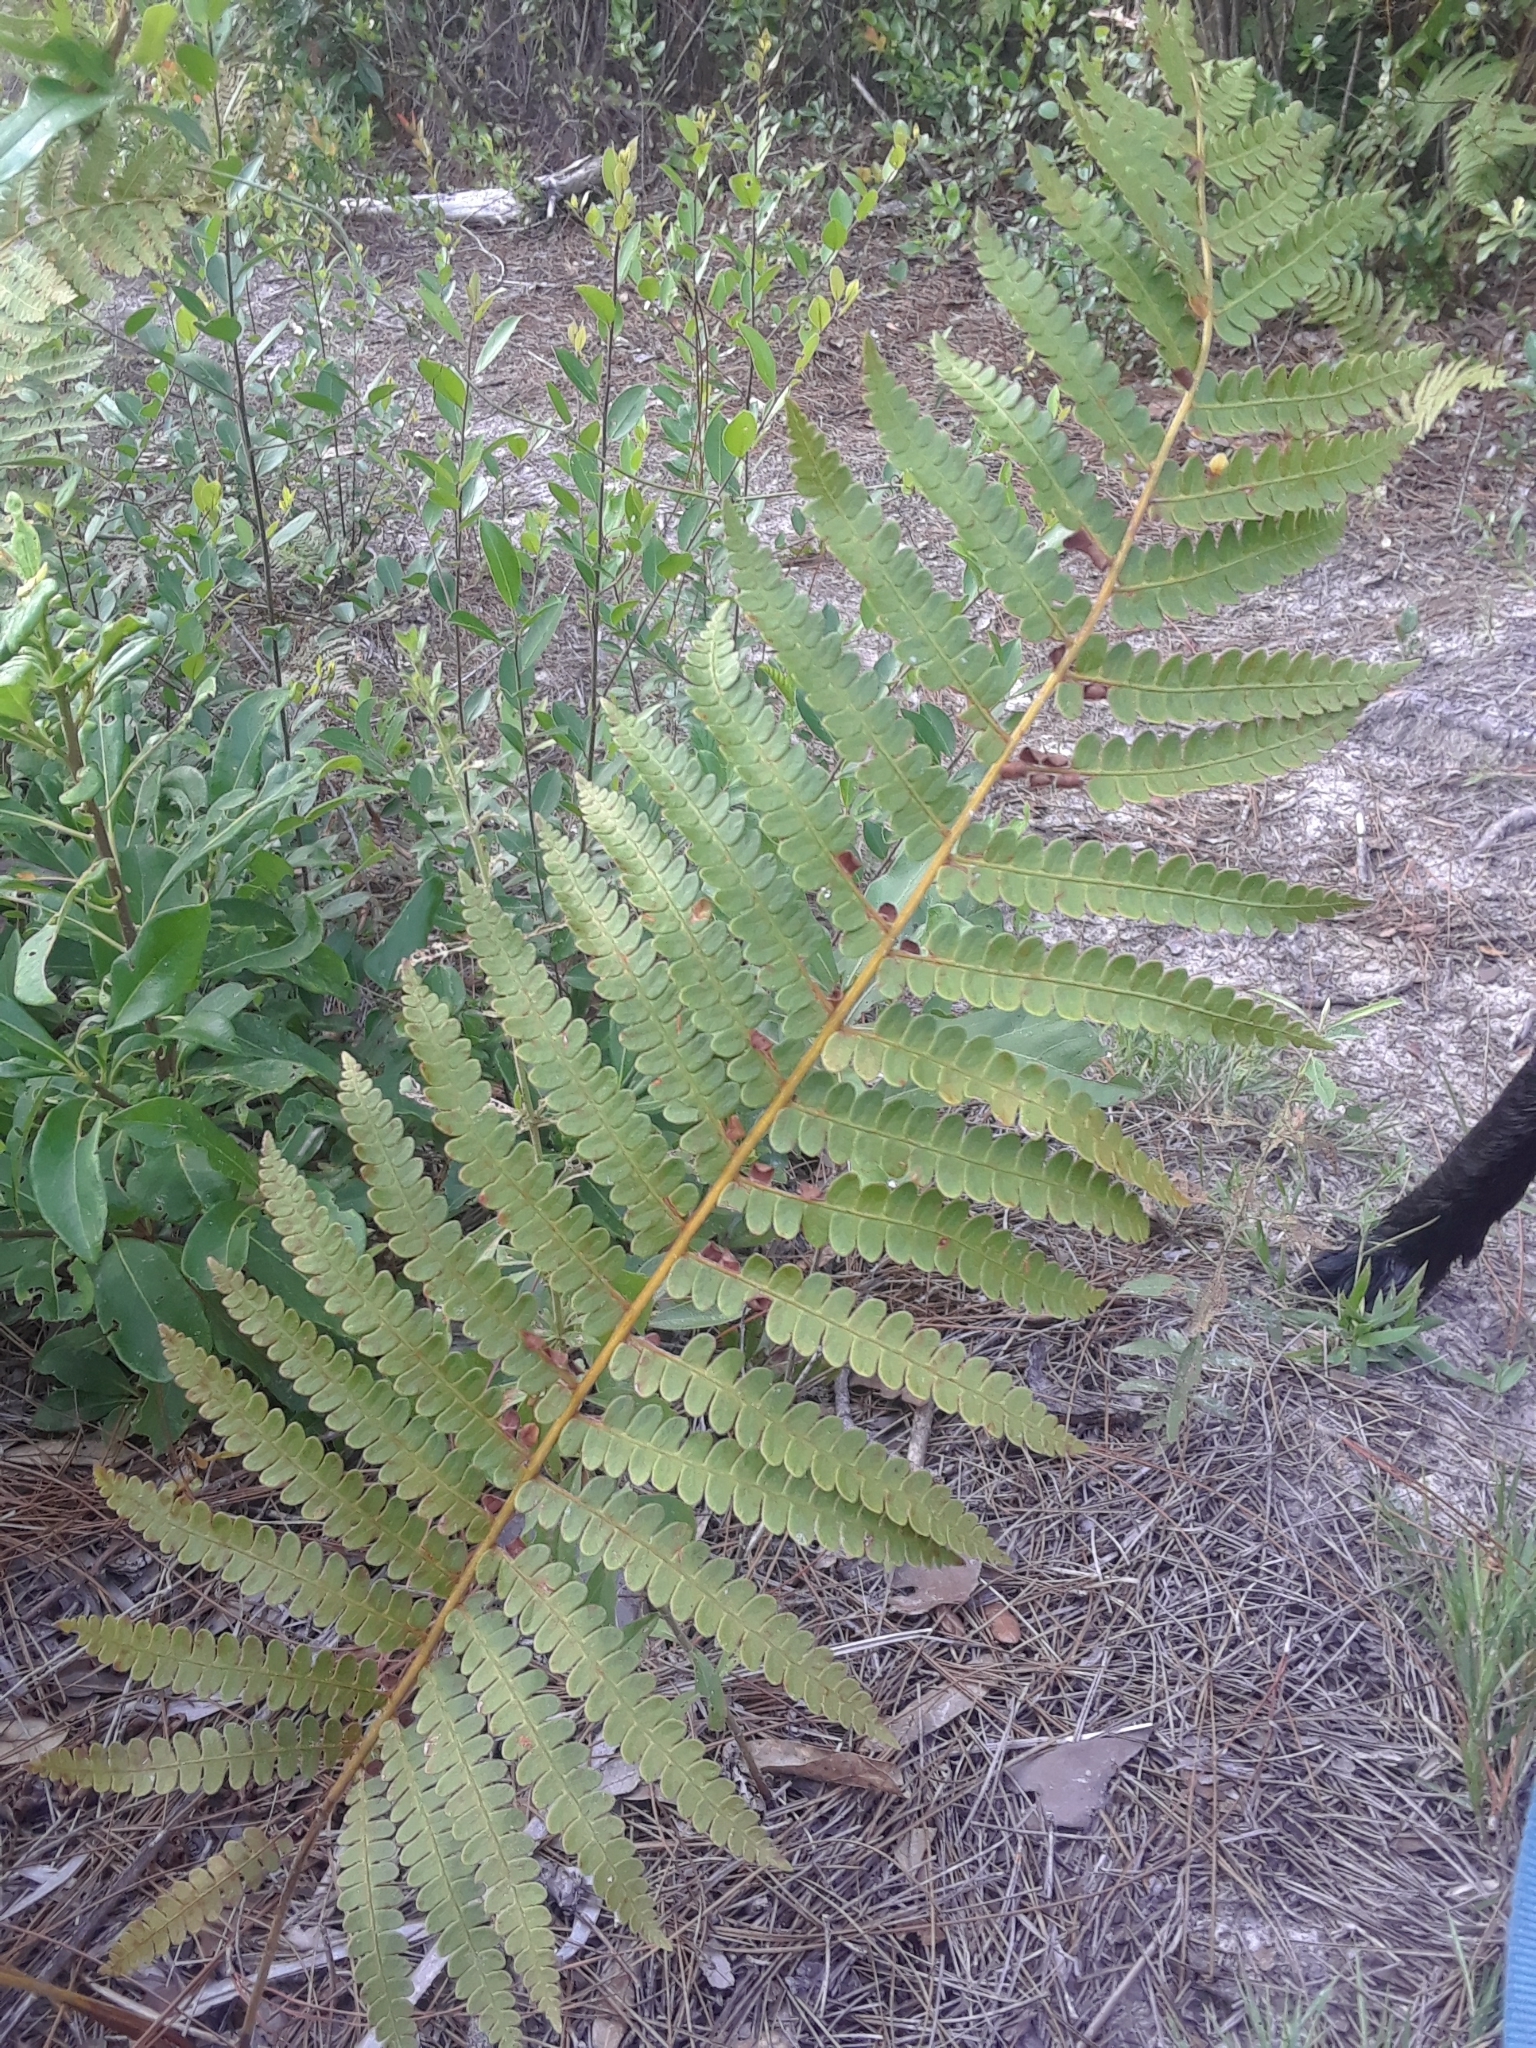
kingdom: Plantae
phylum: Tracheophyta
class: Polypodiopsida
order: Osmundales
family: Osmundaceae
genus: Osmundastrum
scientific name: Osmundastrum cinnamomeum
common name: Cinnamon fern
